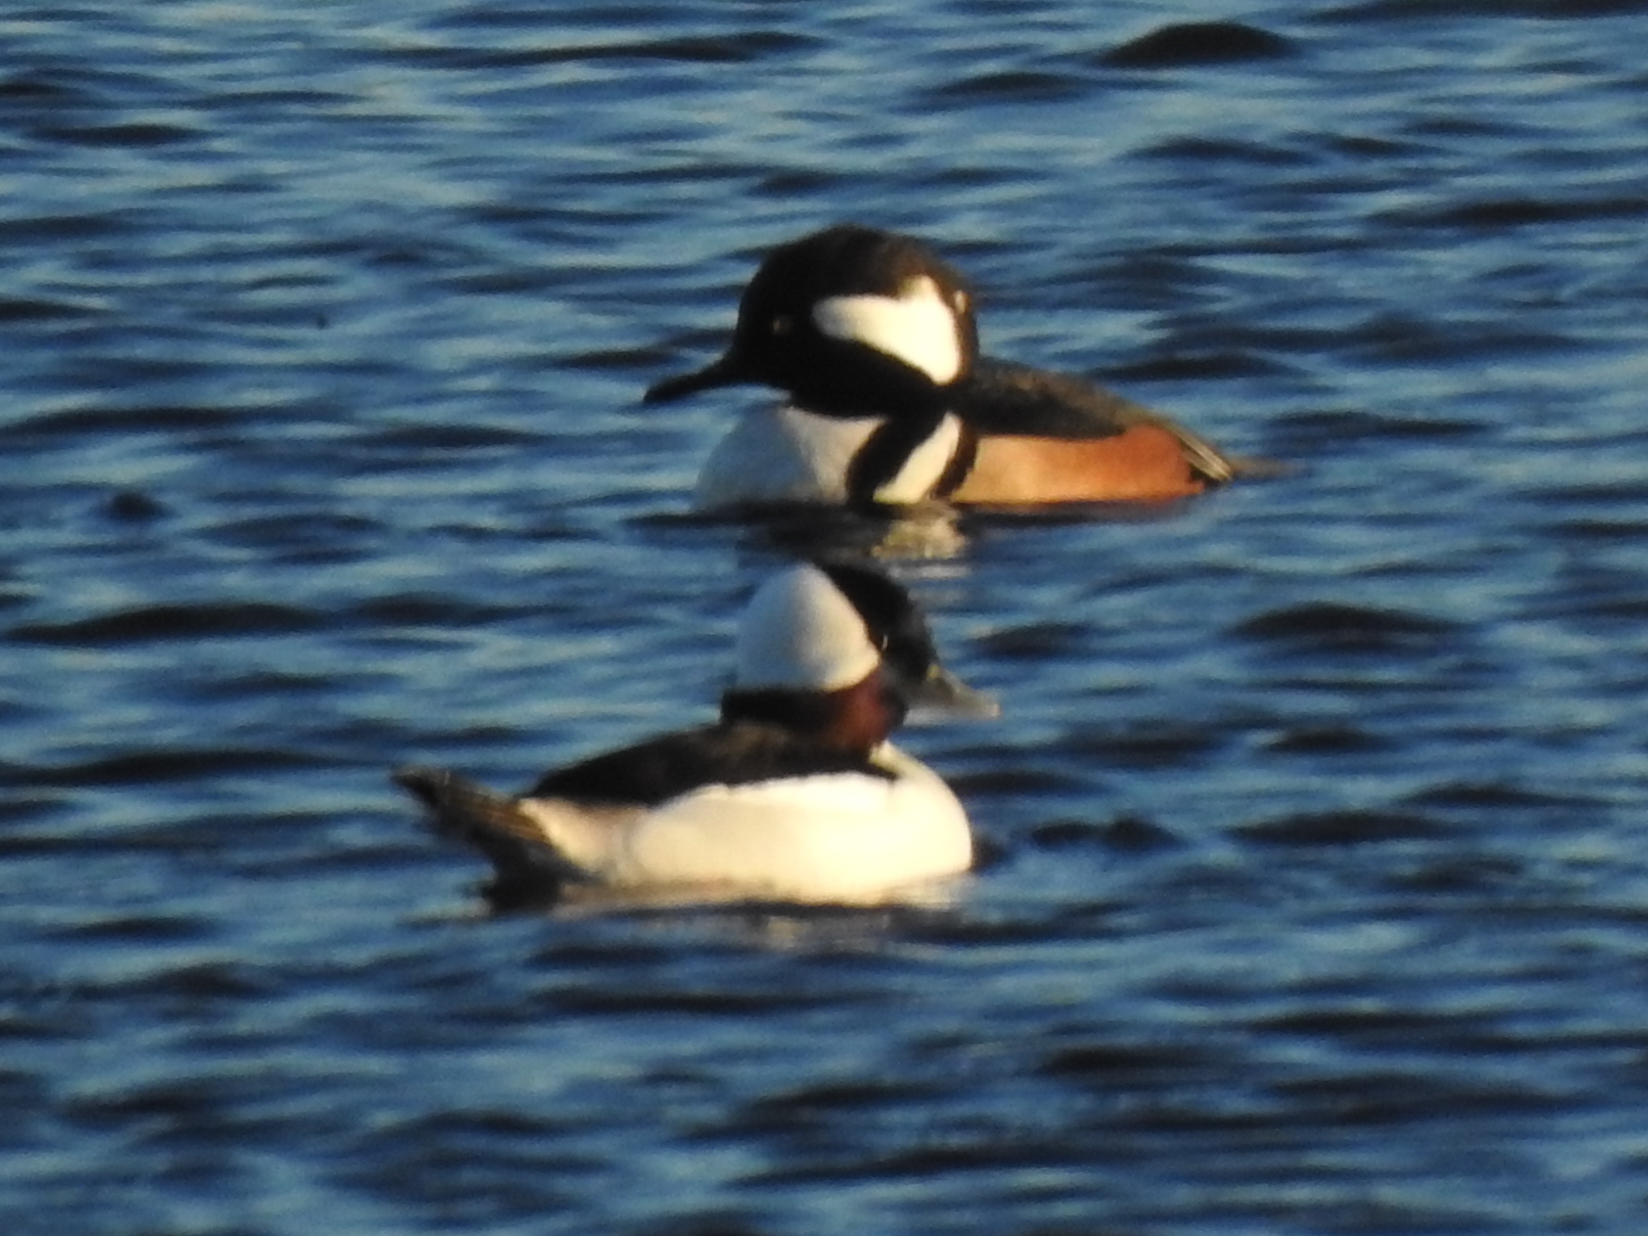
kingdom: Animalia
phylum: Chordata
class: Aves
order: Anseriformes
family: Anatidae
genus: Lophodytes
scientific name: Lophodytes cucullatus
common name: Hooded merganser
